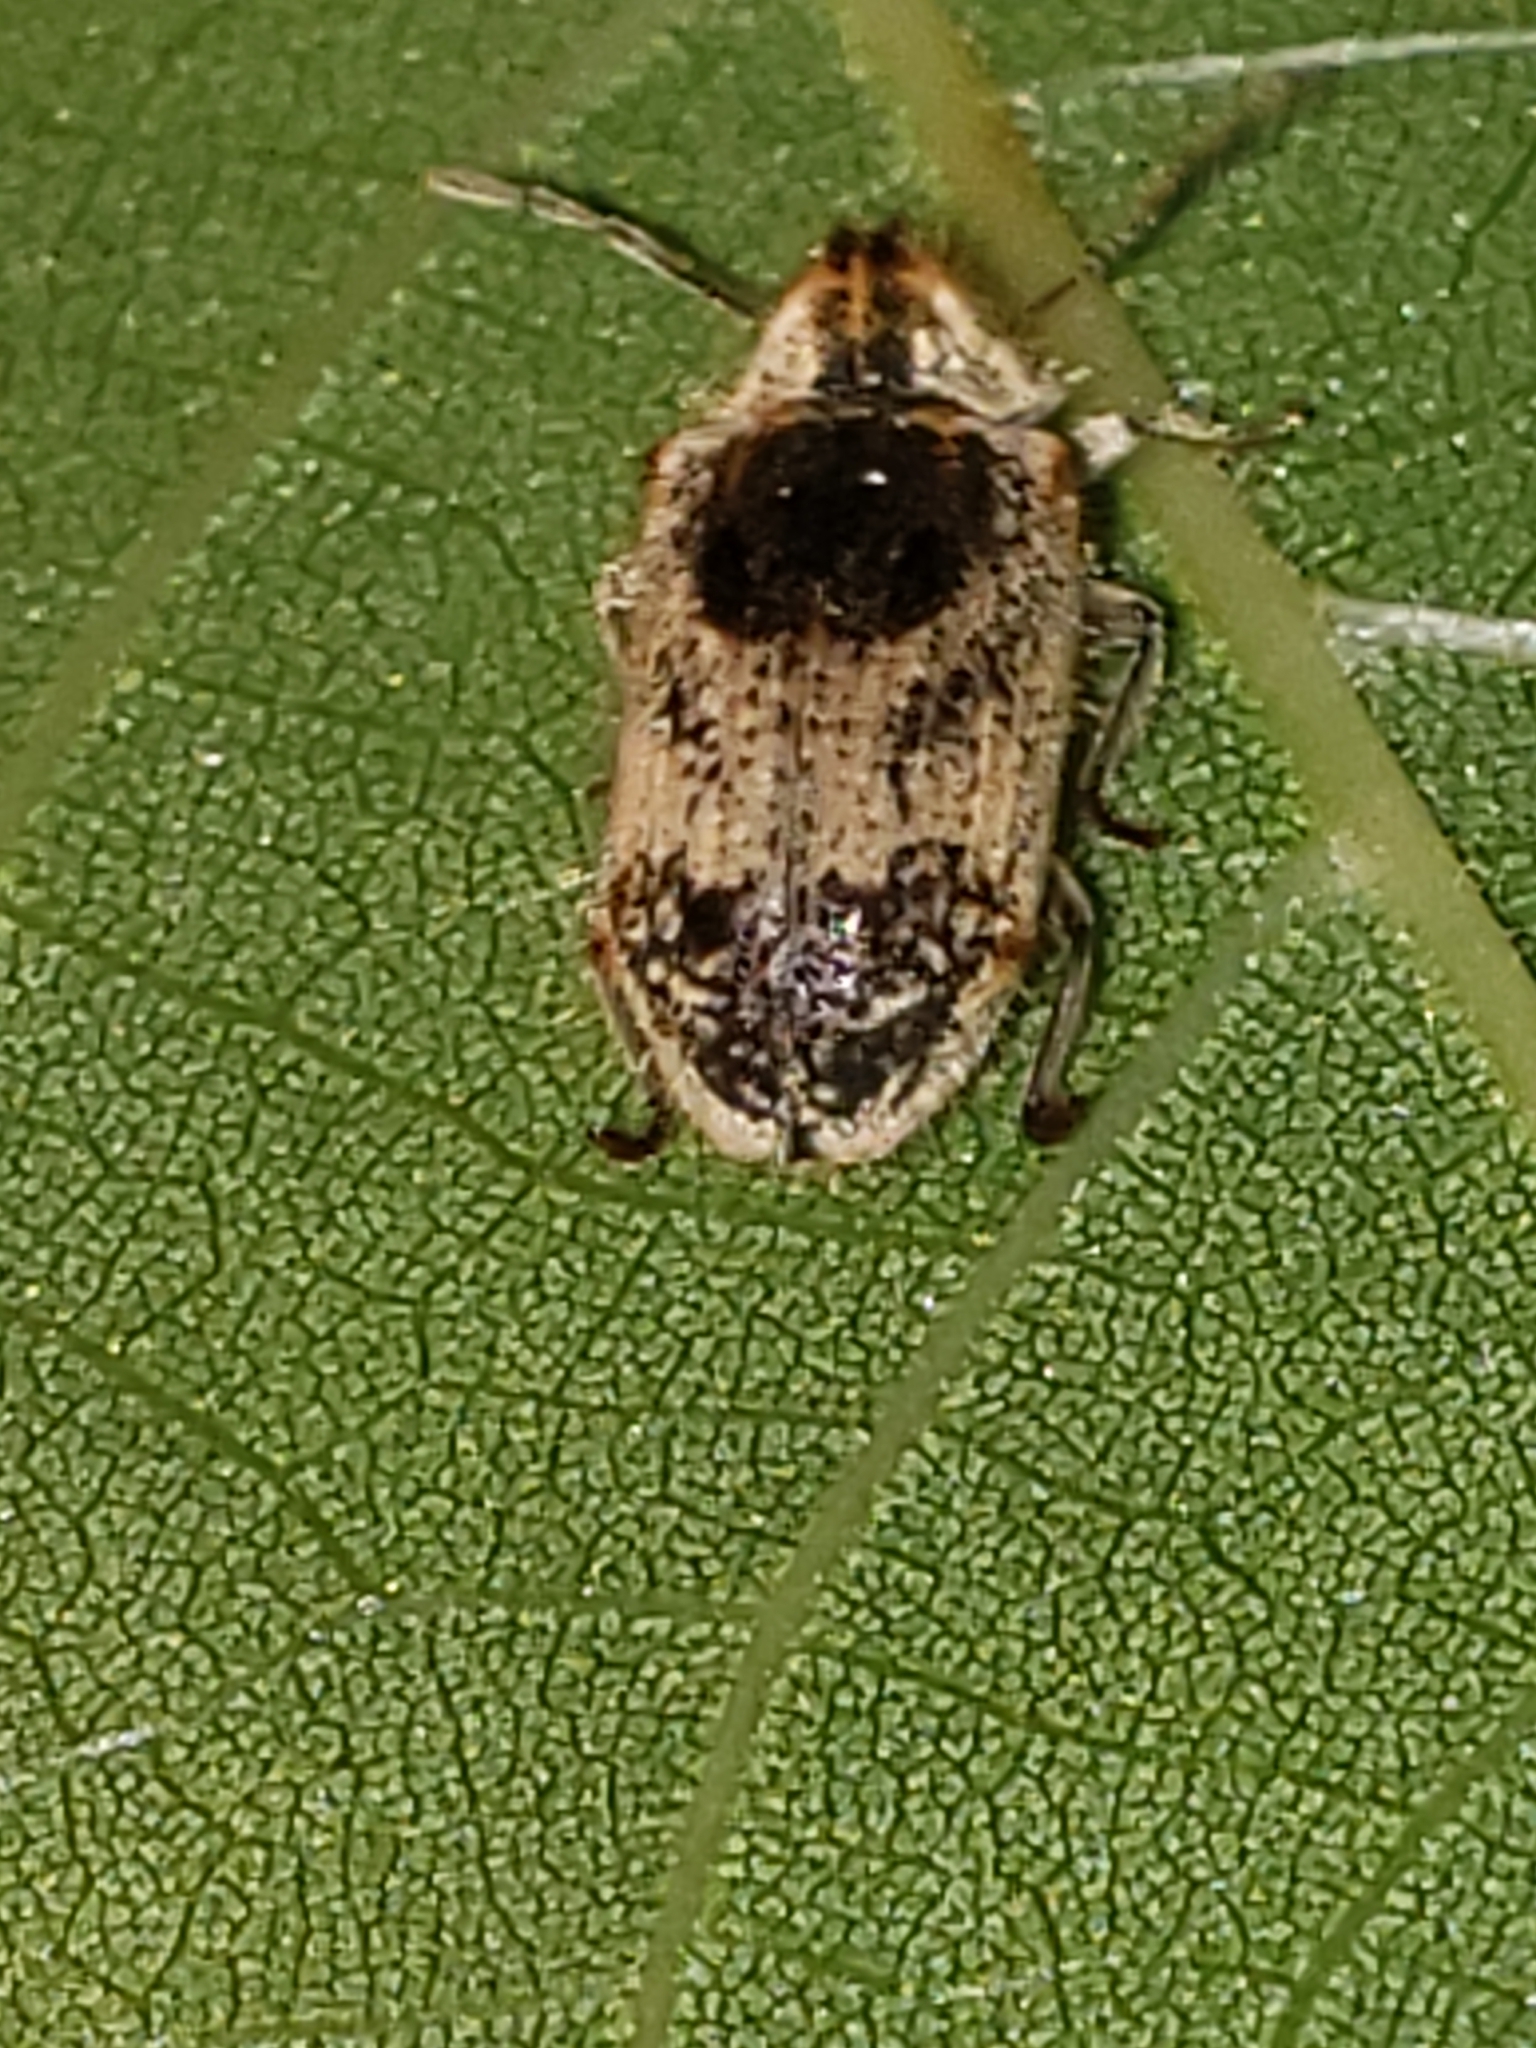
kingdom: Animalia
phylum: Arthropoda
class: Insecta
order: Coleoptera
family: Anobiidae
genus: Trichodesma
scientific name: Trichodesma gibbosa
